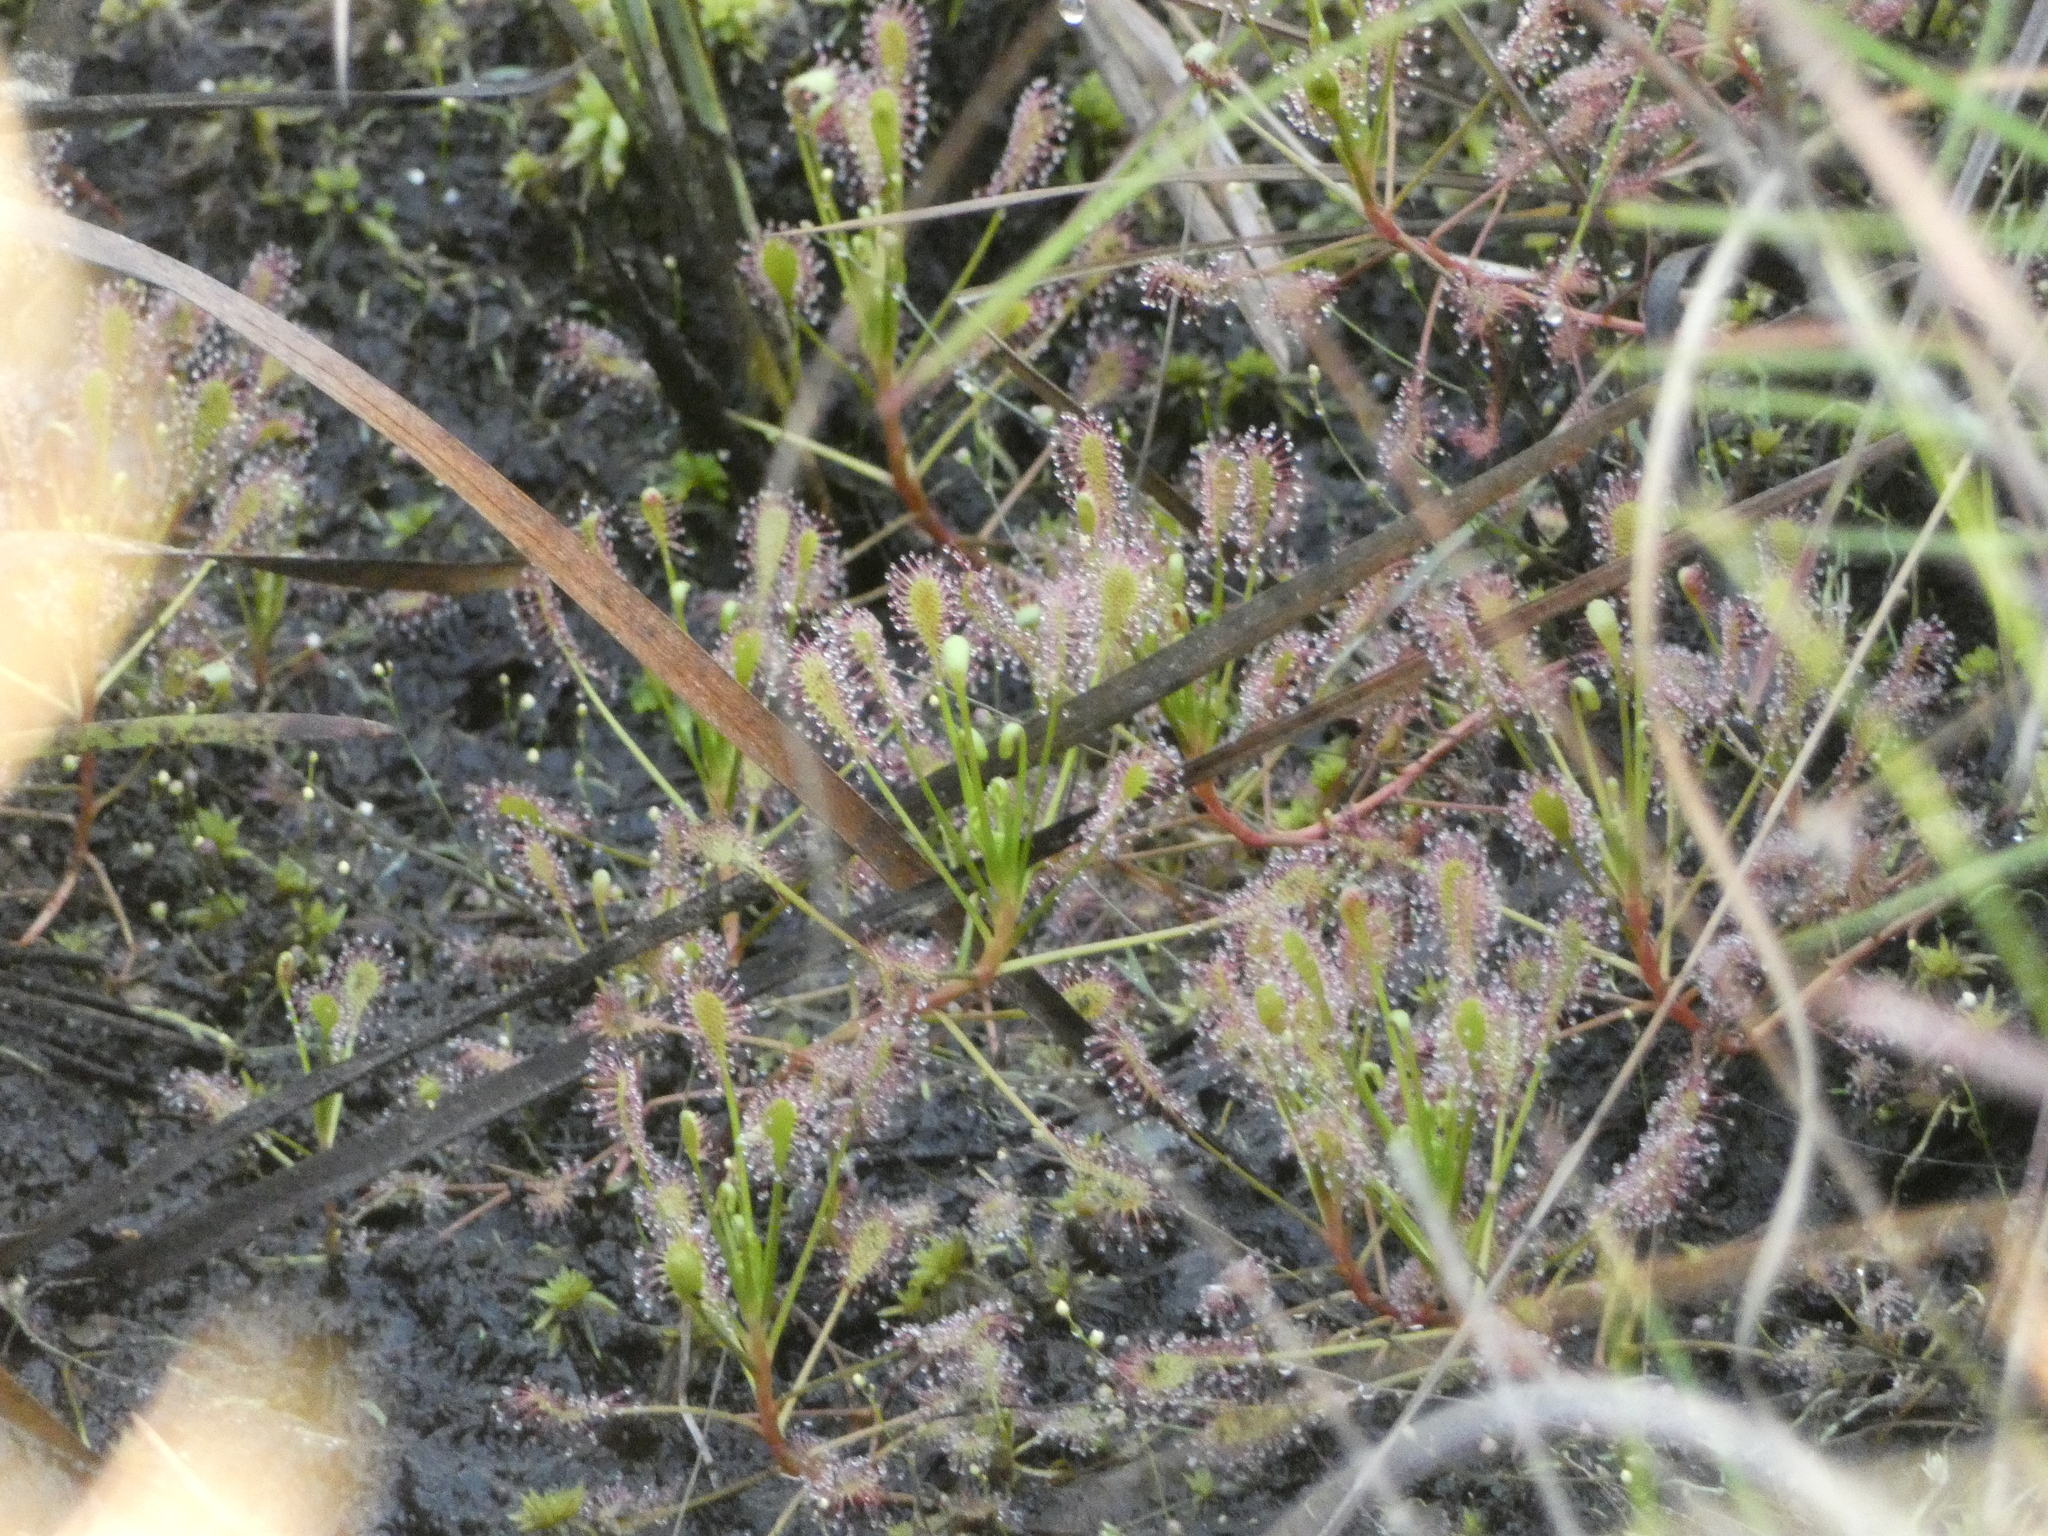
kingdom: Plantae
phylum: Tracheophyta
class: Magnoliopsida
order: Caryophyllales
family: Droseraceae
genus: Drosera
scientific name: Drosera intermedia
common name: Oblong-leaved sundew
